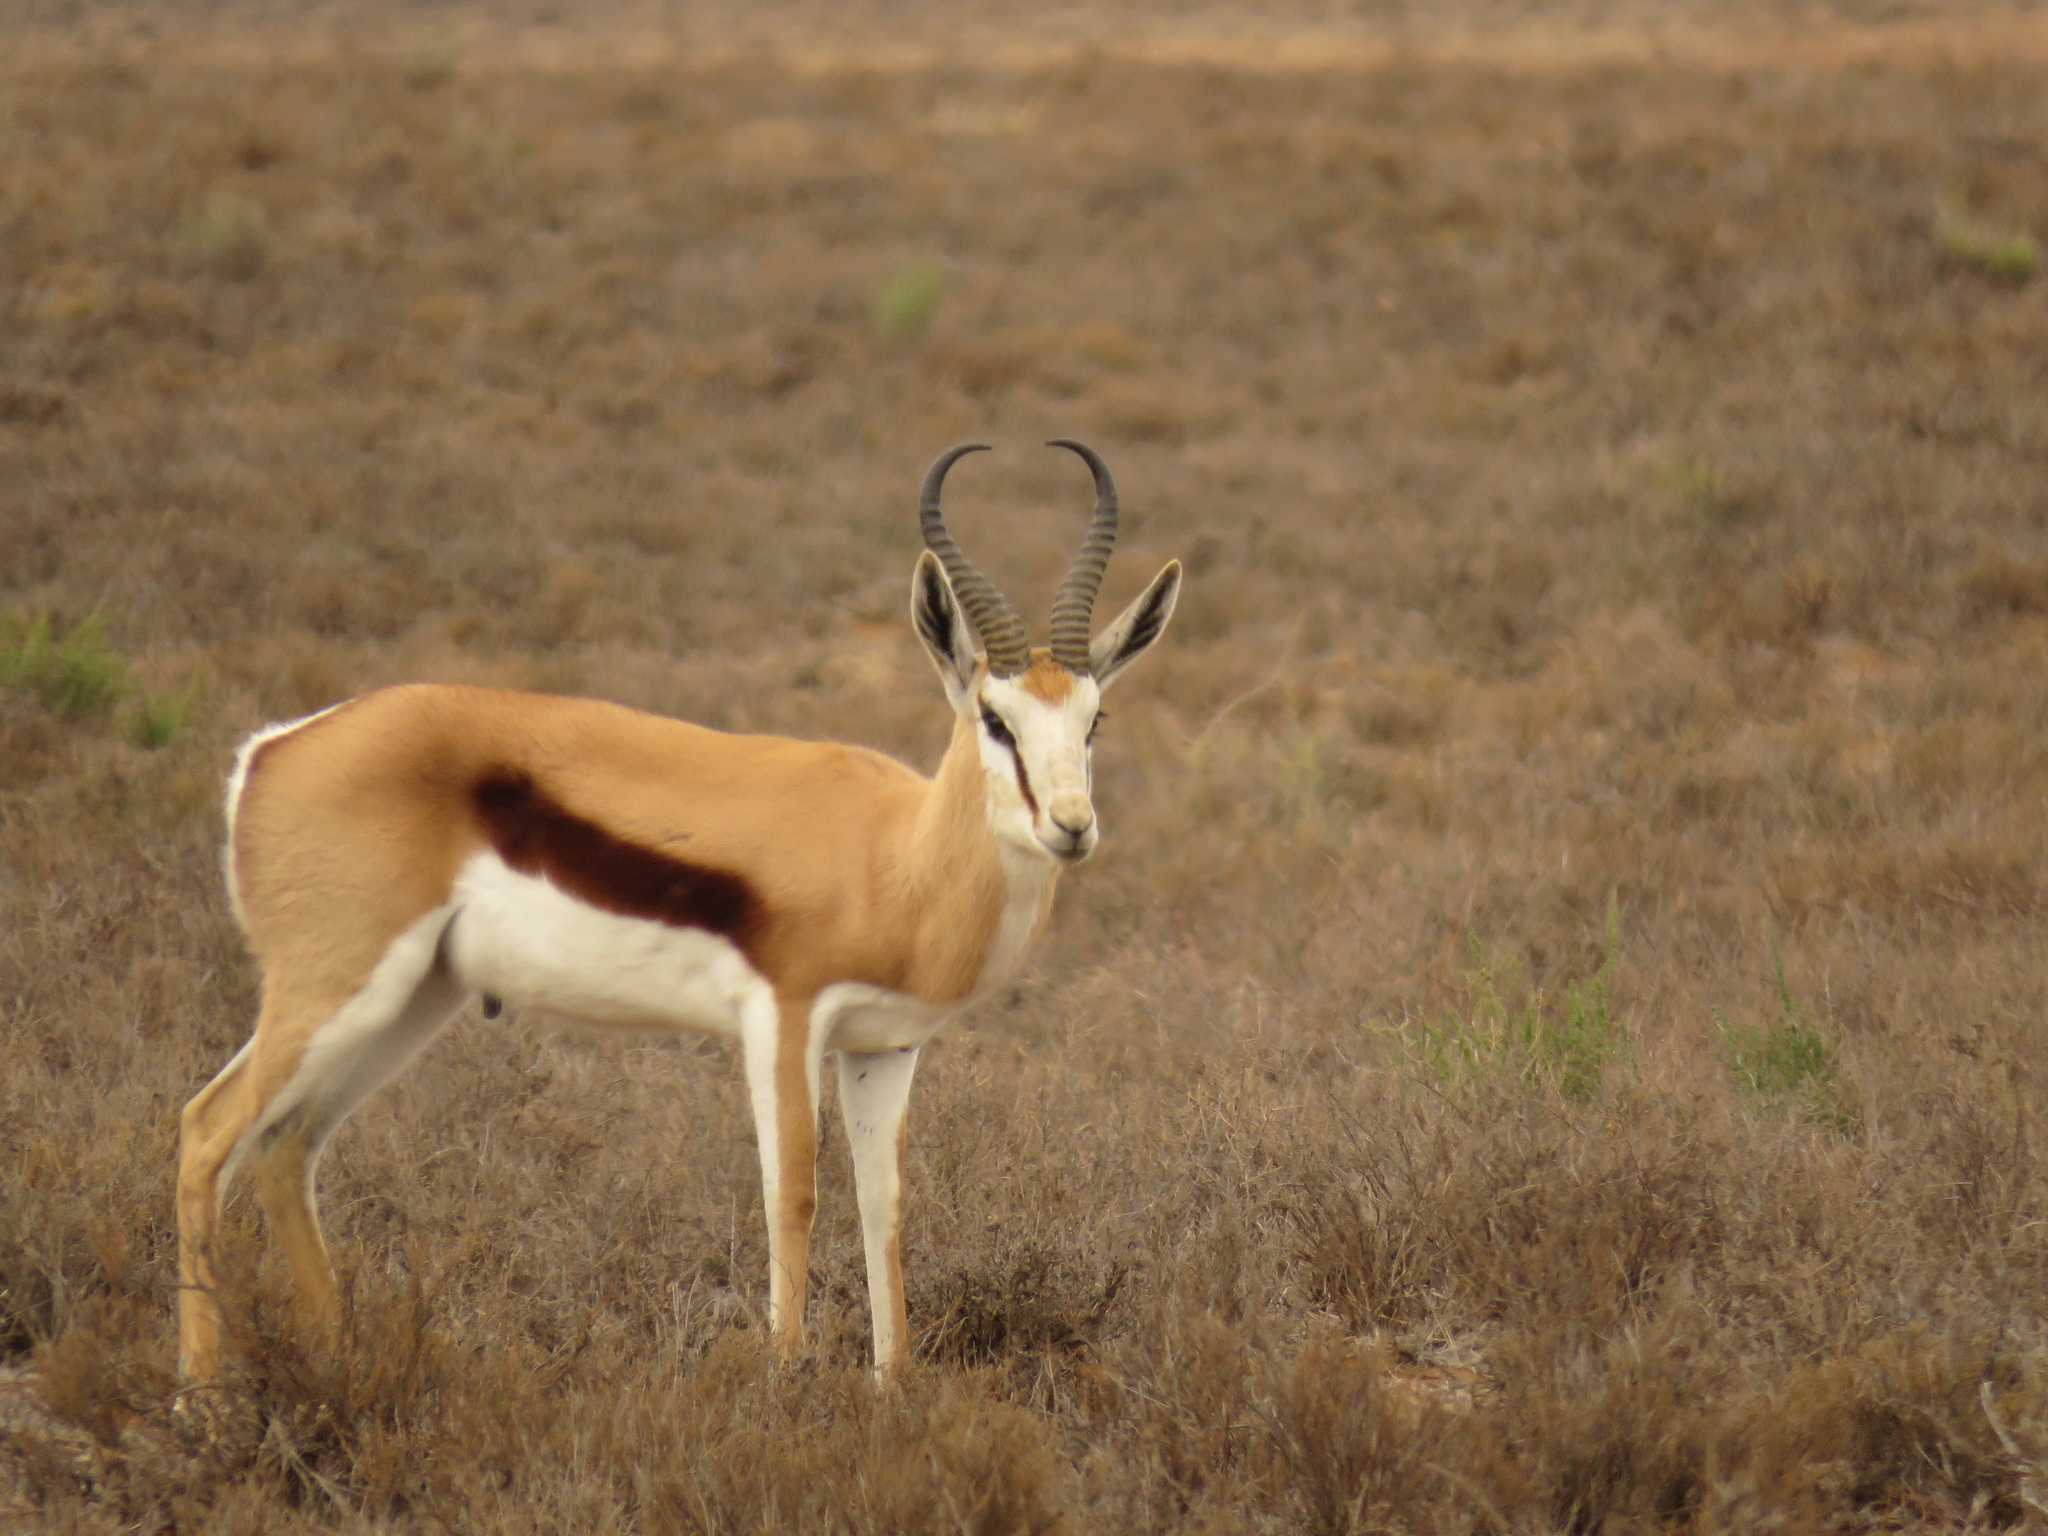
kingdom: Animalia
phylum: Chordata
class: Mammalia
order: Artiodactyla
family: Bovidae
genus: Antidorcas
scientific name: Antidorcas marsupialis
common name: Springbok
